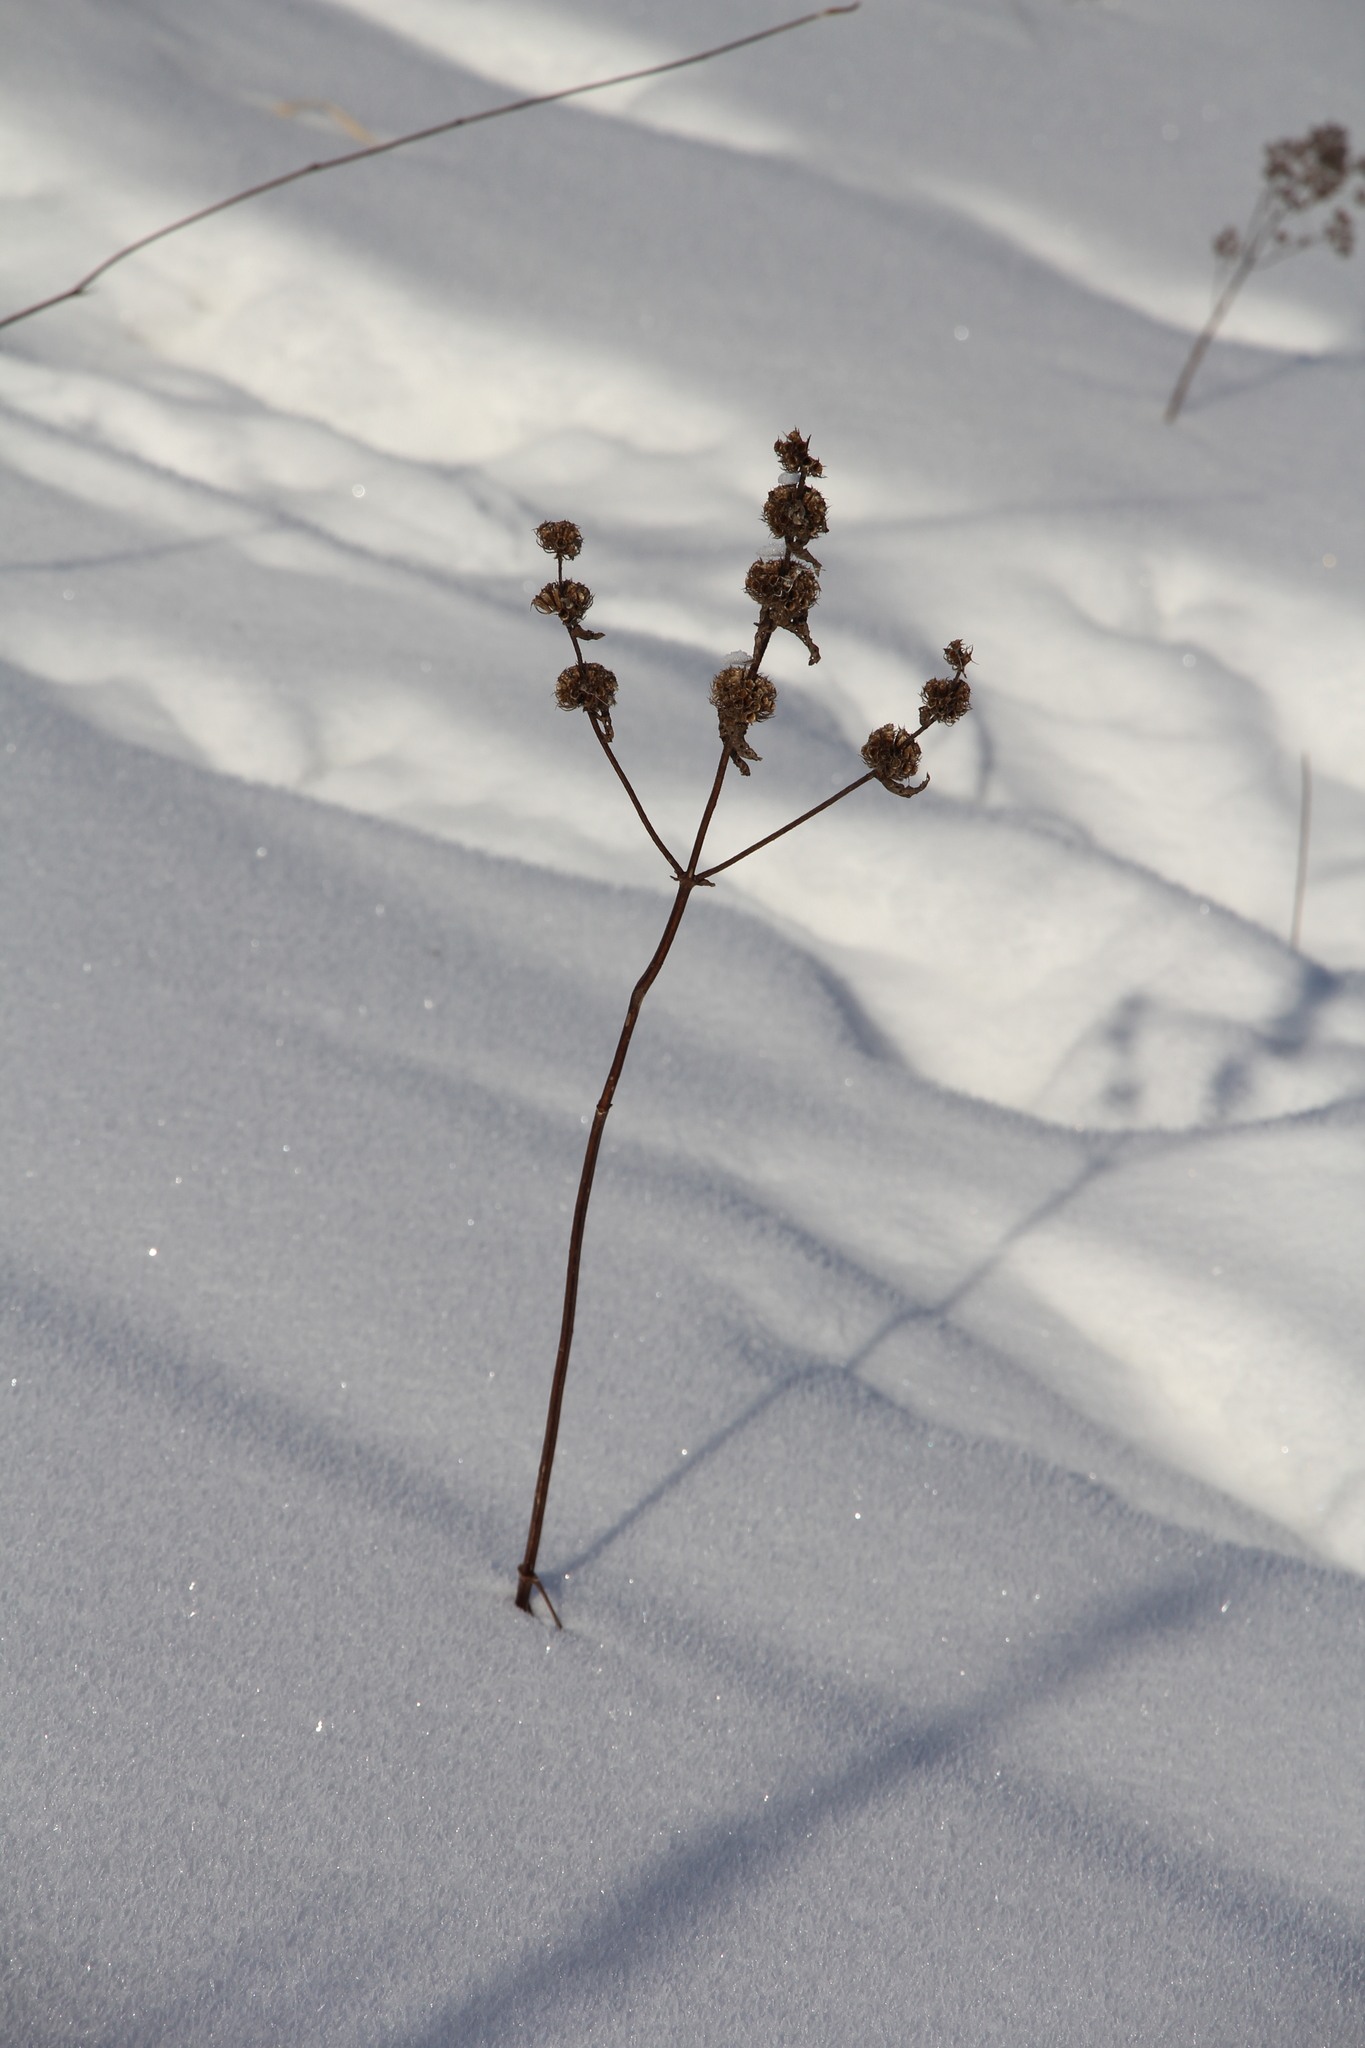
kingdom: Plantae
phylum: Tracheophyta
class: Magnoliopsida
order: Lamiales
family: Lamiaceae
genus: Phlomoides
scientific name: Phlomoides tuberosa
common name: Tuberous jerusalem sage
